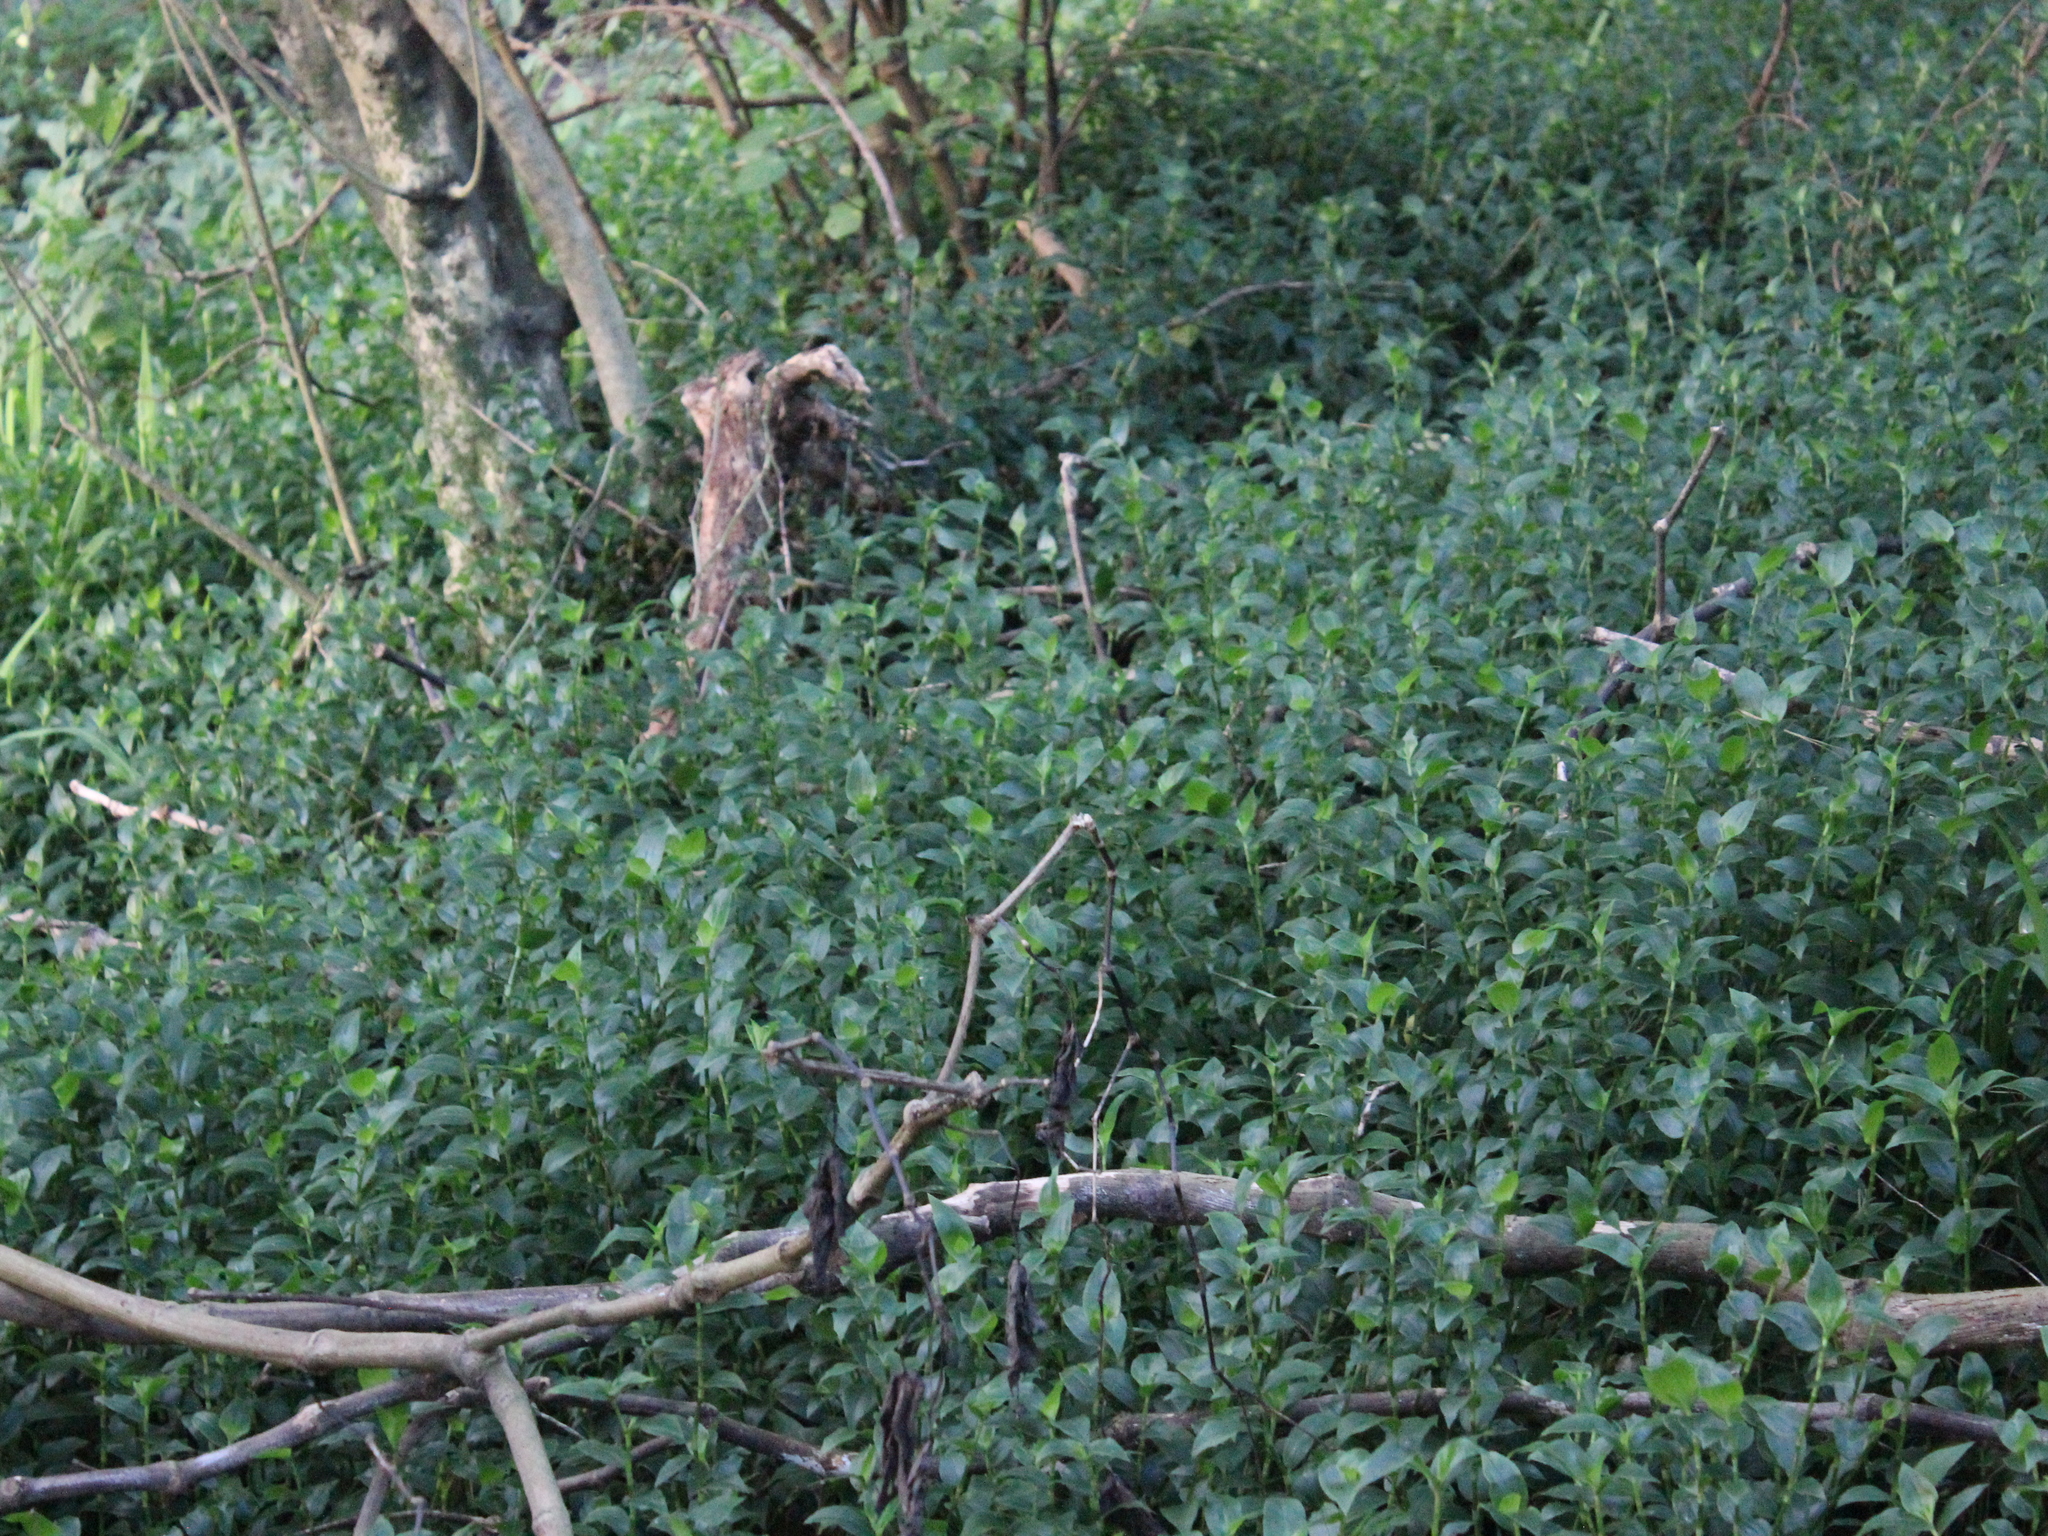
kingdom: Plantae
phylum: Tracheophyta
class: Liliopsida
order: Commelinales
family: Commelinaceae
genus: Tradescantia
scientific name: Tradescantia fluminensis
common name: Wandering-jew
